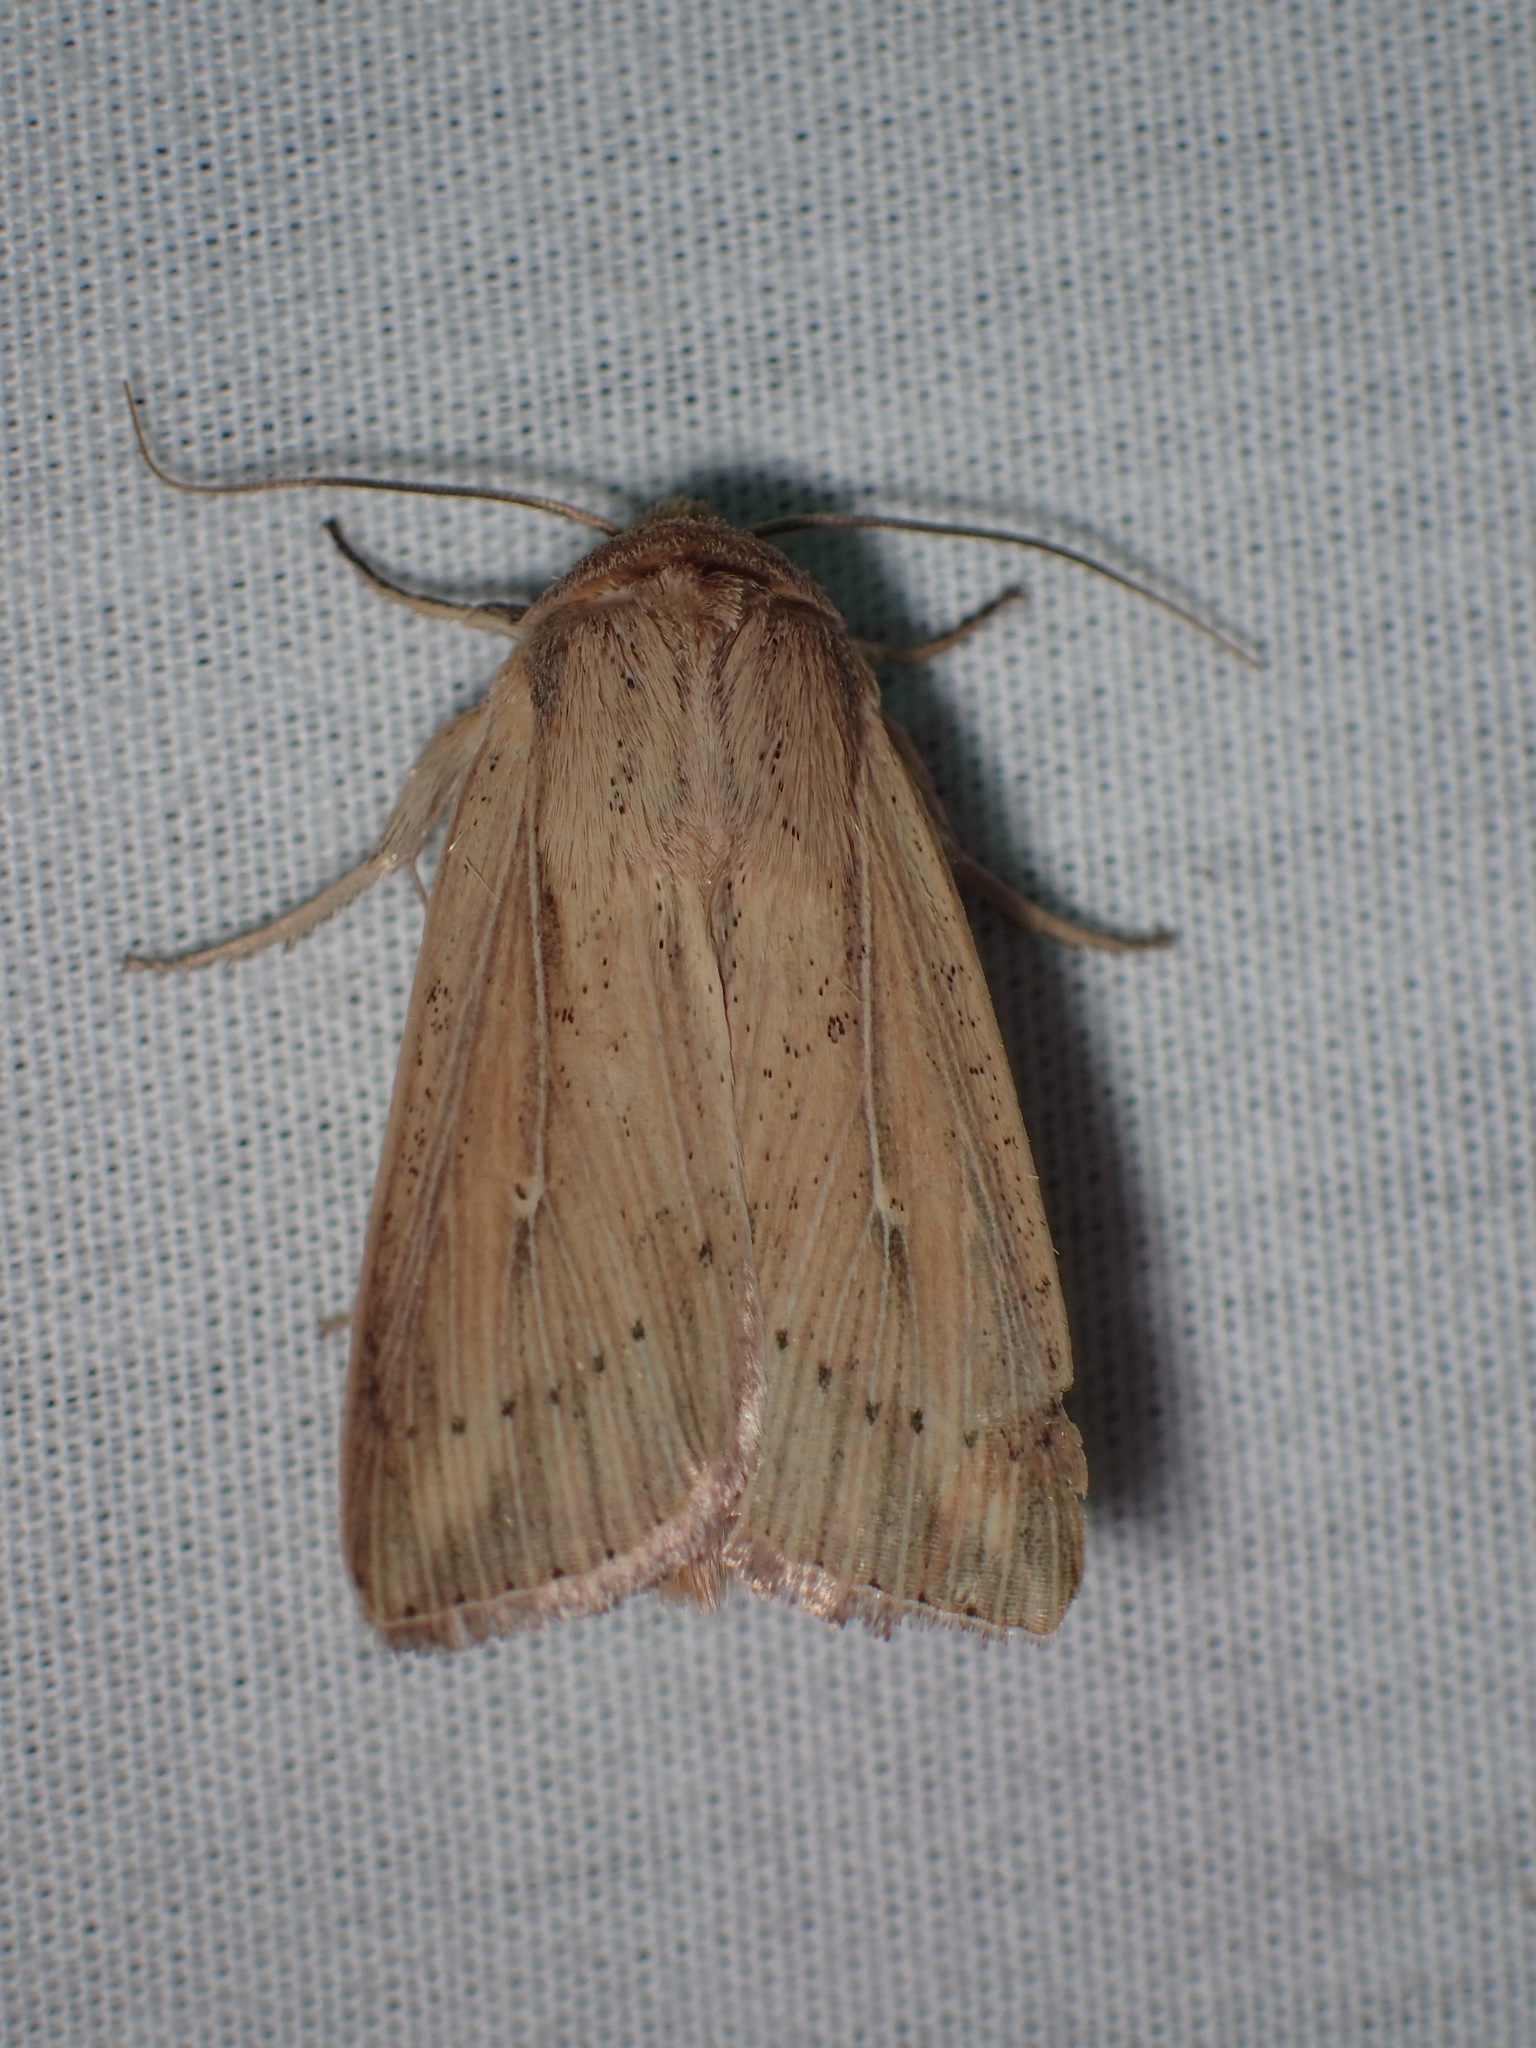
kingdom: Animalia
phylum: Arthropoda
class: Insecta
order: Lepidoptera
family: Noctuidae
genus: Leucania
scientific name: Leucania linda
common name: Linda's wainscot
